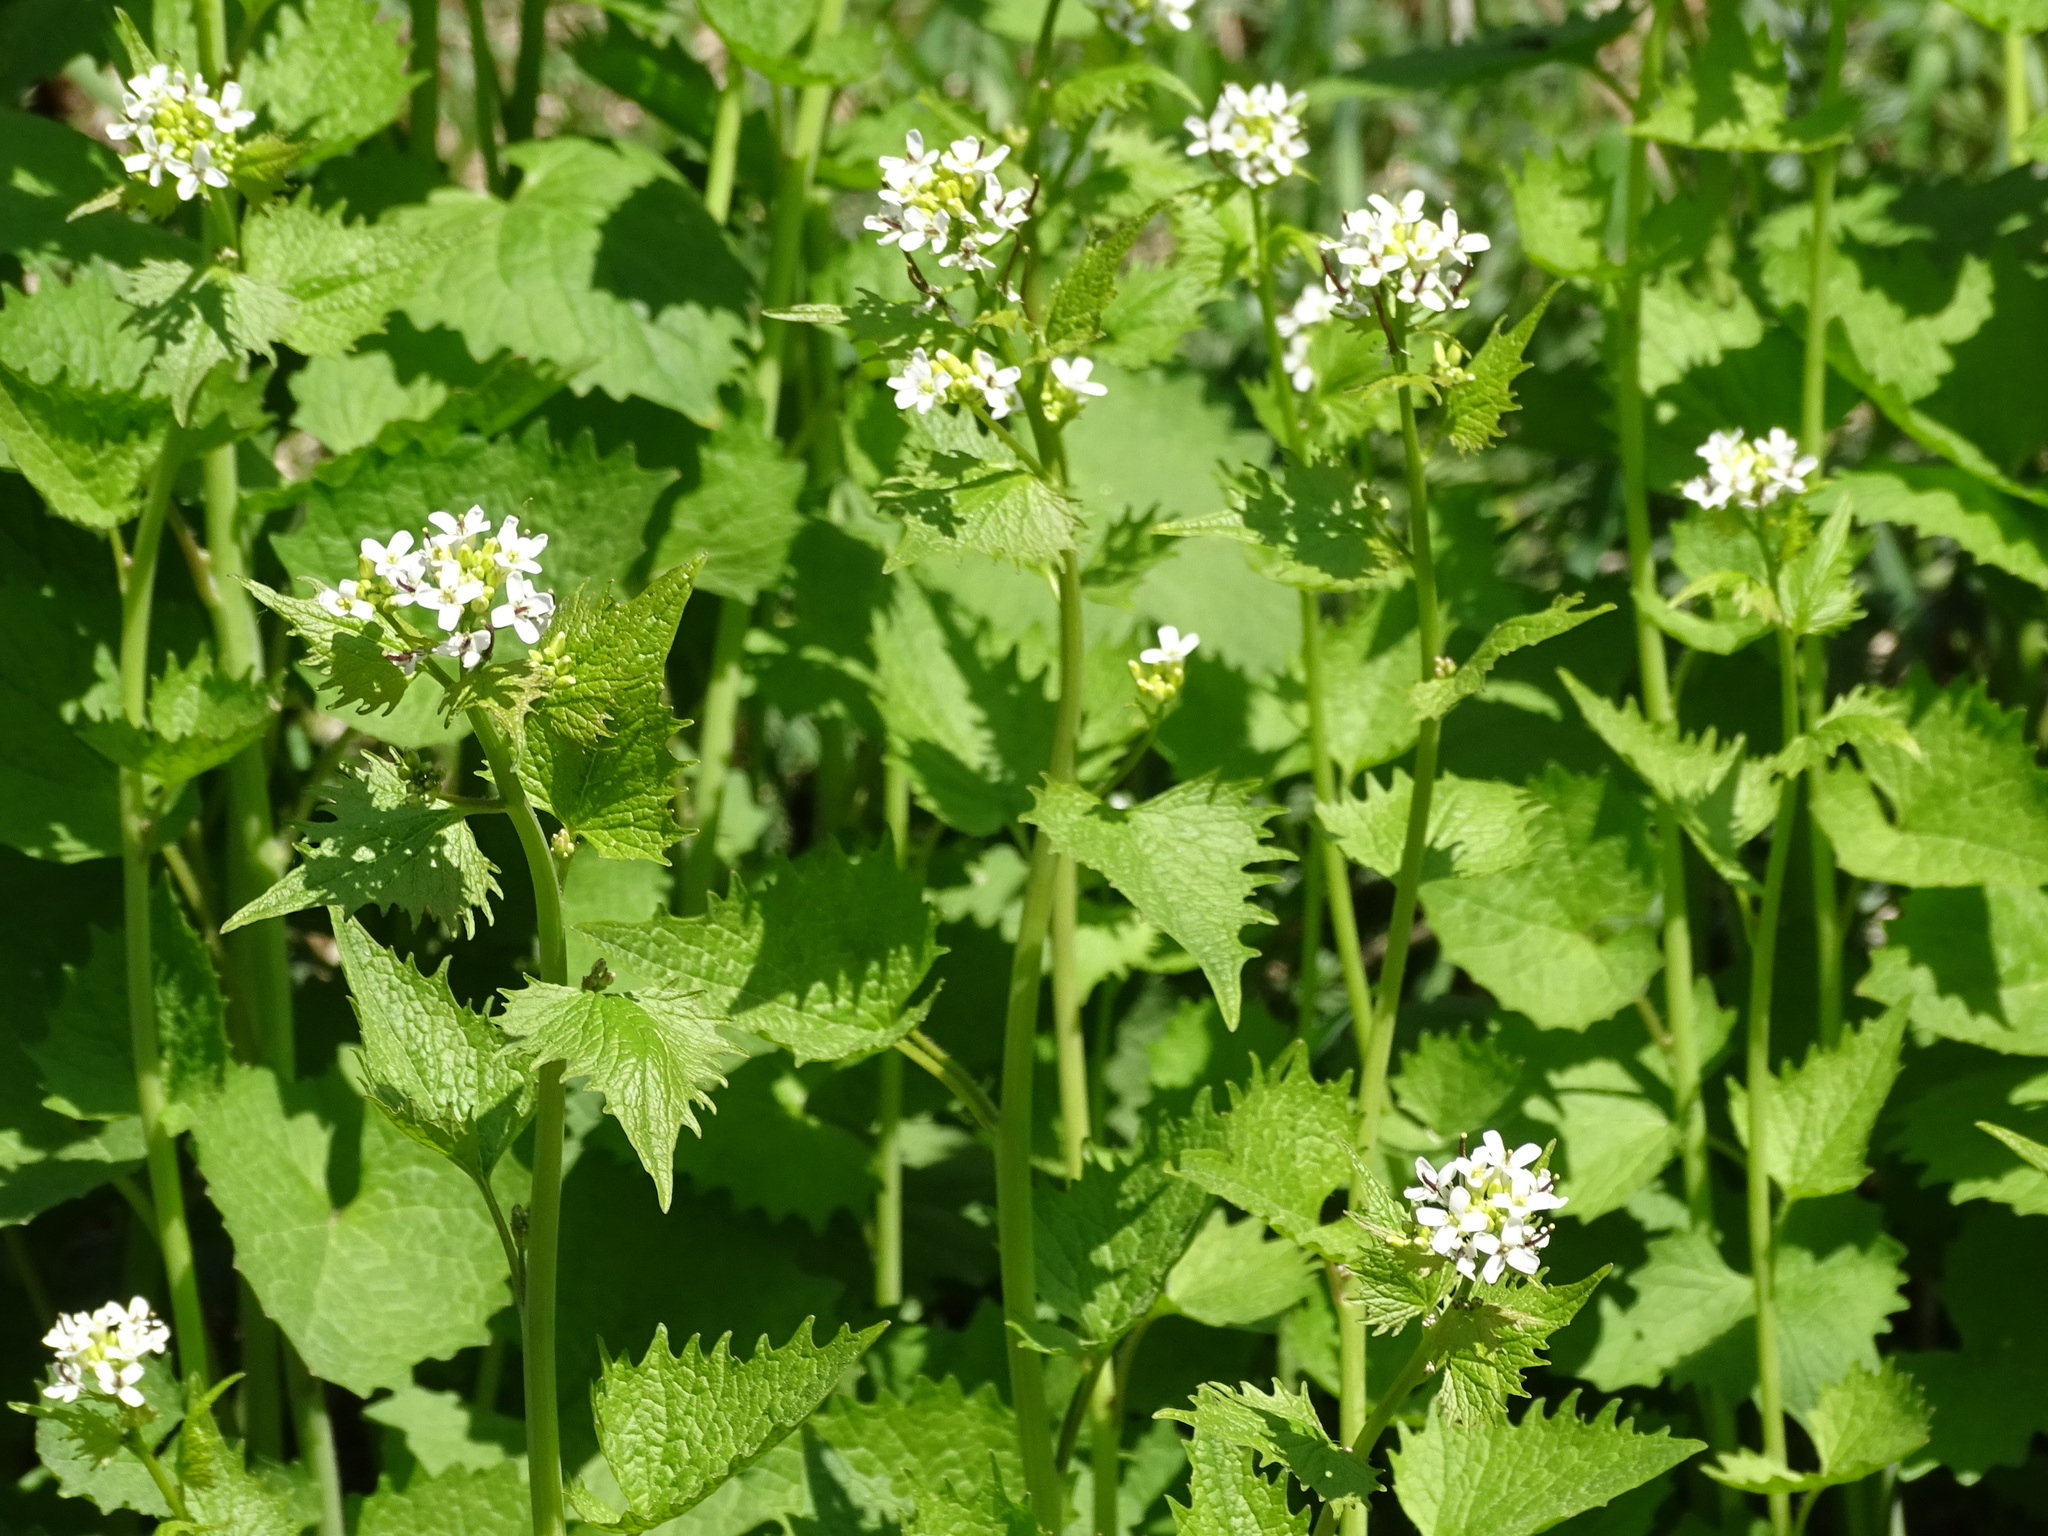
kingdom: Plantae
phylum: Tracheophyta
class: Magnoliopsida
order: Brassicales
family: Brassicaceae
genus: Alliaria
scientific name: Alliaria petiolata
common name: Garlic mustard
